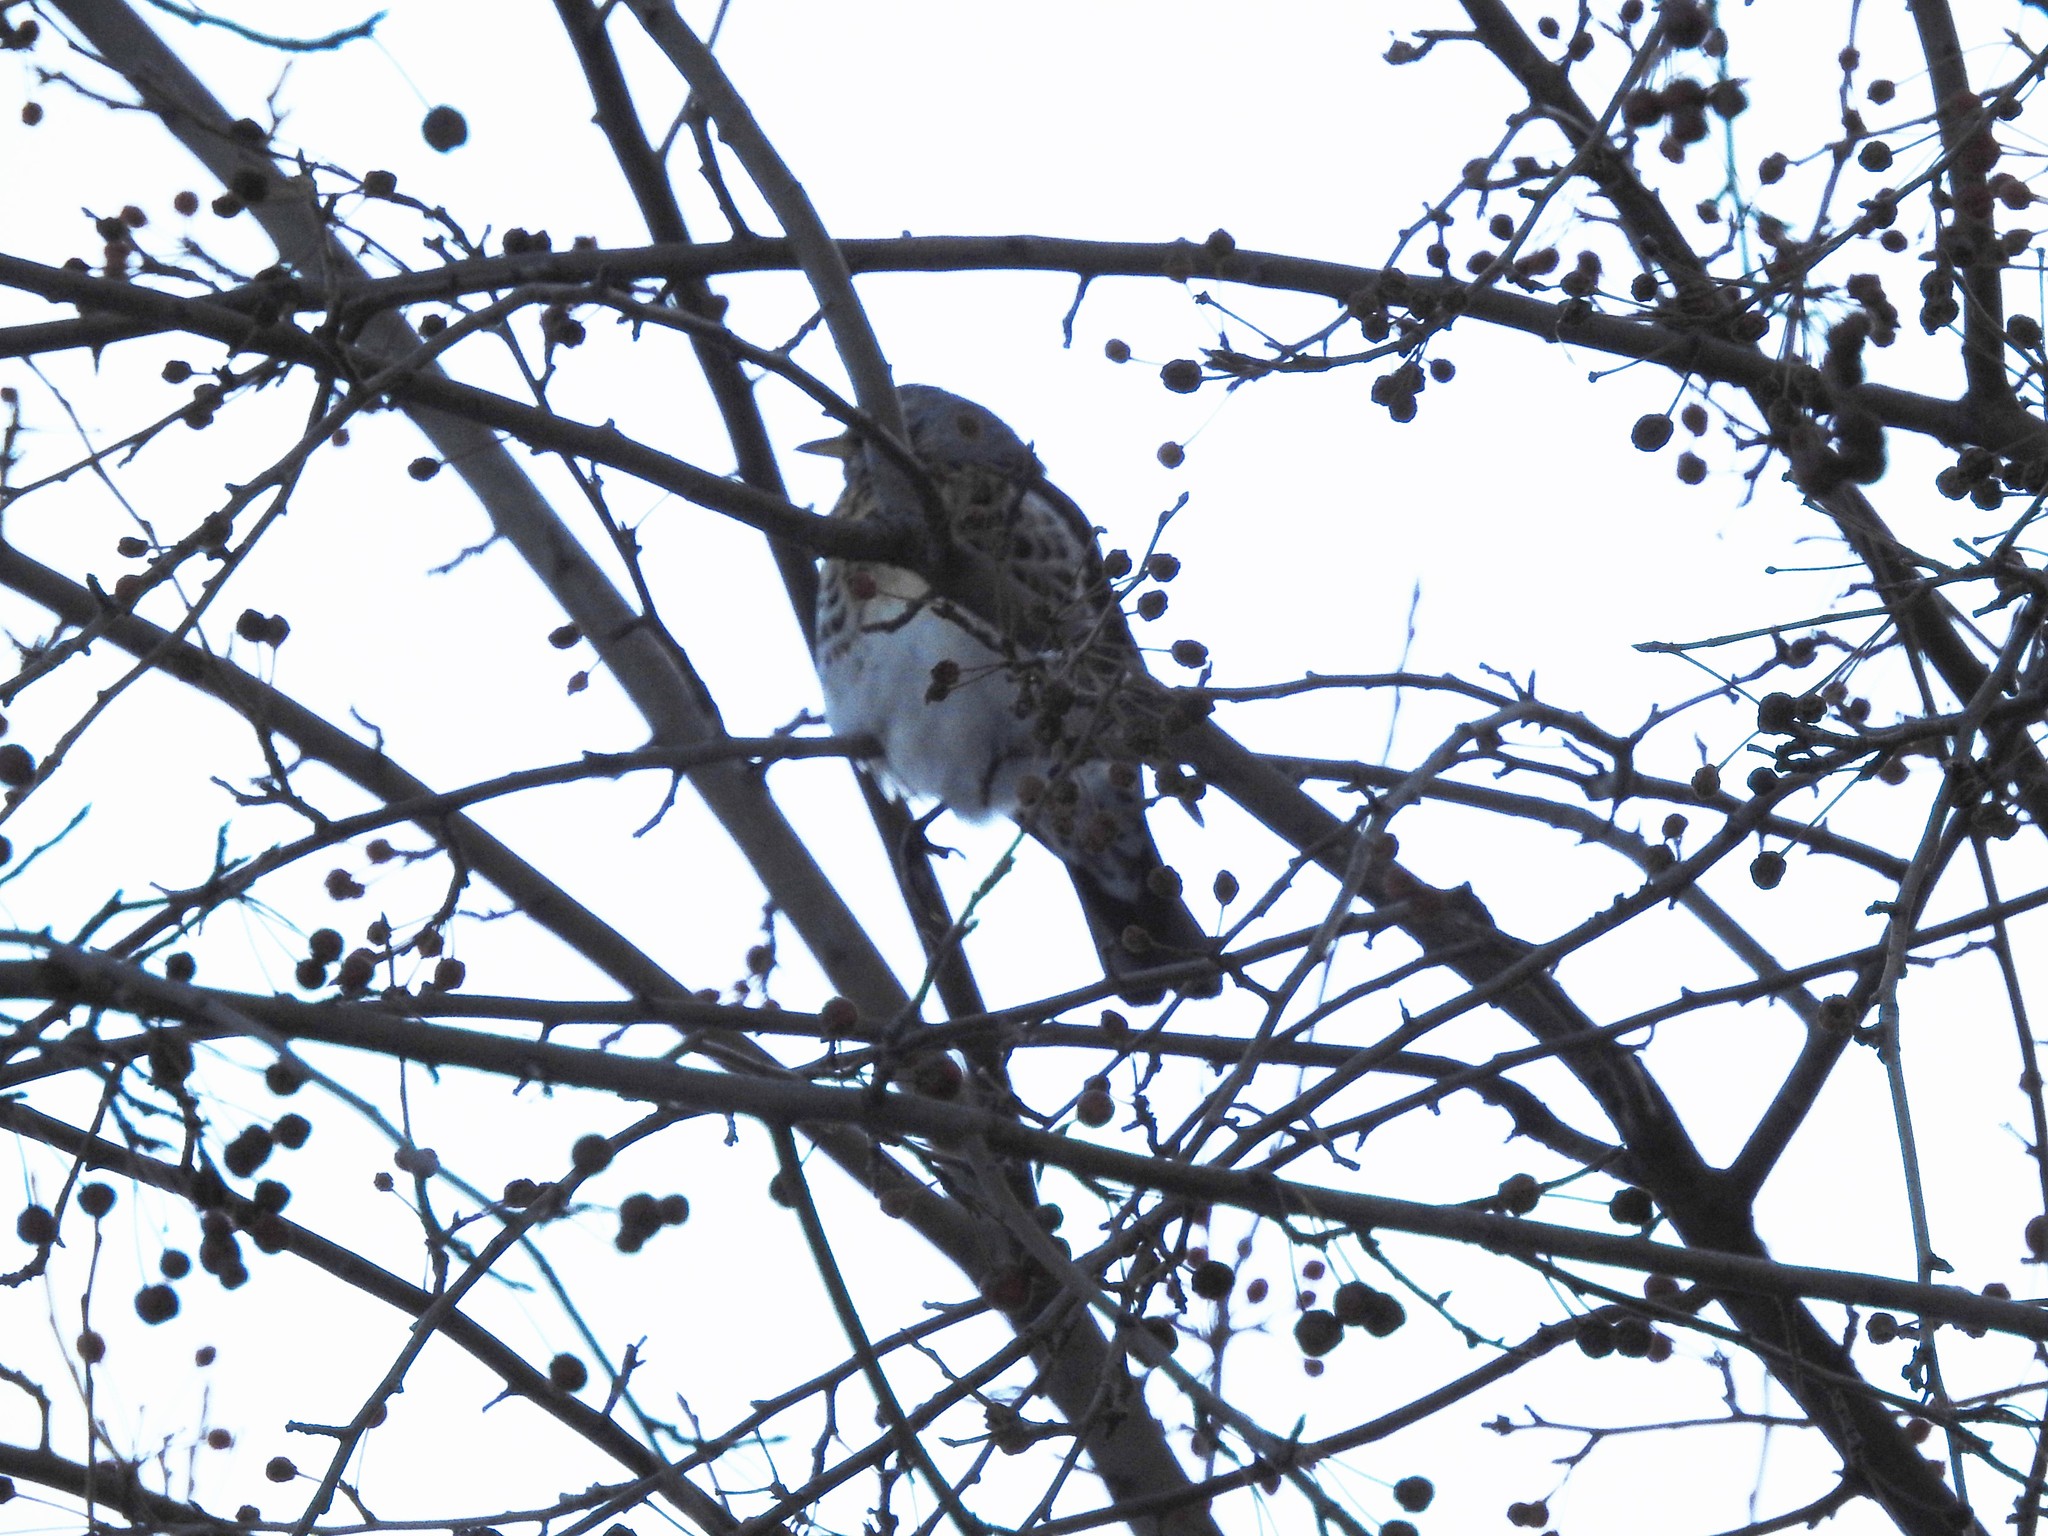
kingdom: Animalia
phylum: Chordata
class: Aves
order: Passeriformes
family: Turdidae
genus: Turdus
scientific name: Turdus pilaris
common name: Fieldfare
